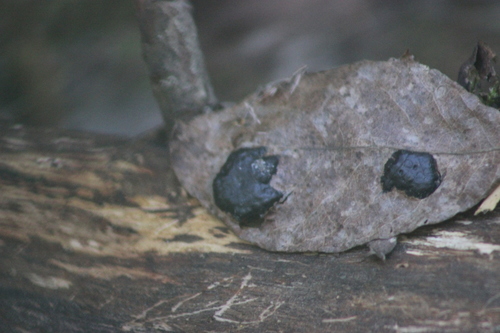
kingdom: Fungi
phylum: Ascomycota
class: Leotiomycetes
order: Rhytismatales
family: Rhytismataceae
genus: Rhytisma
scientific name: Rhytisma salicinum
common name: Willow tarspot
